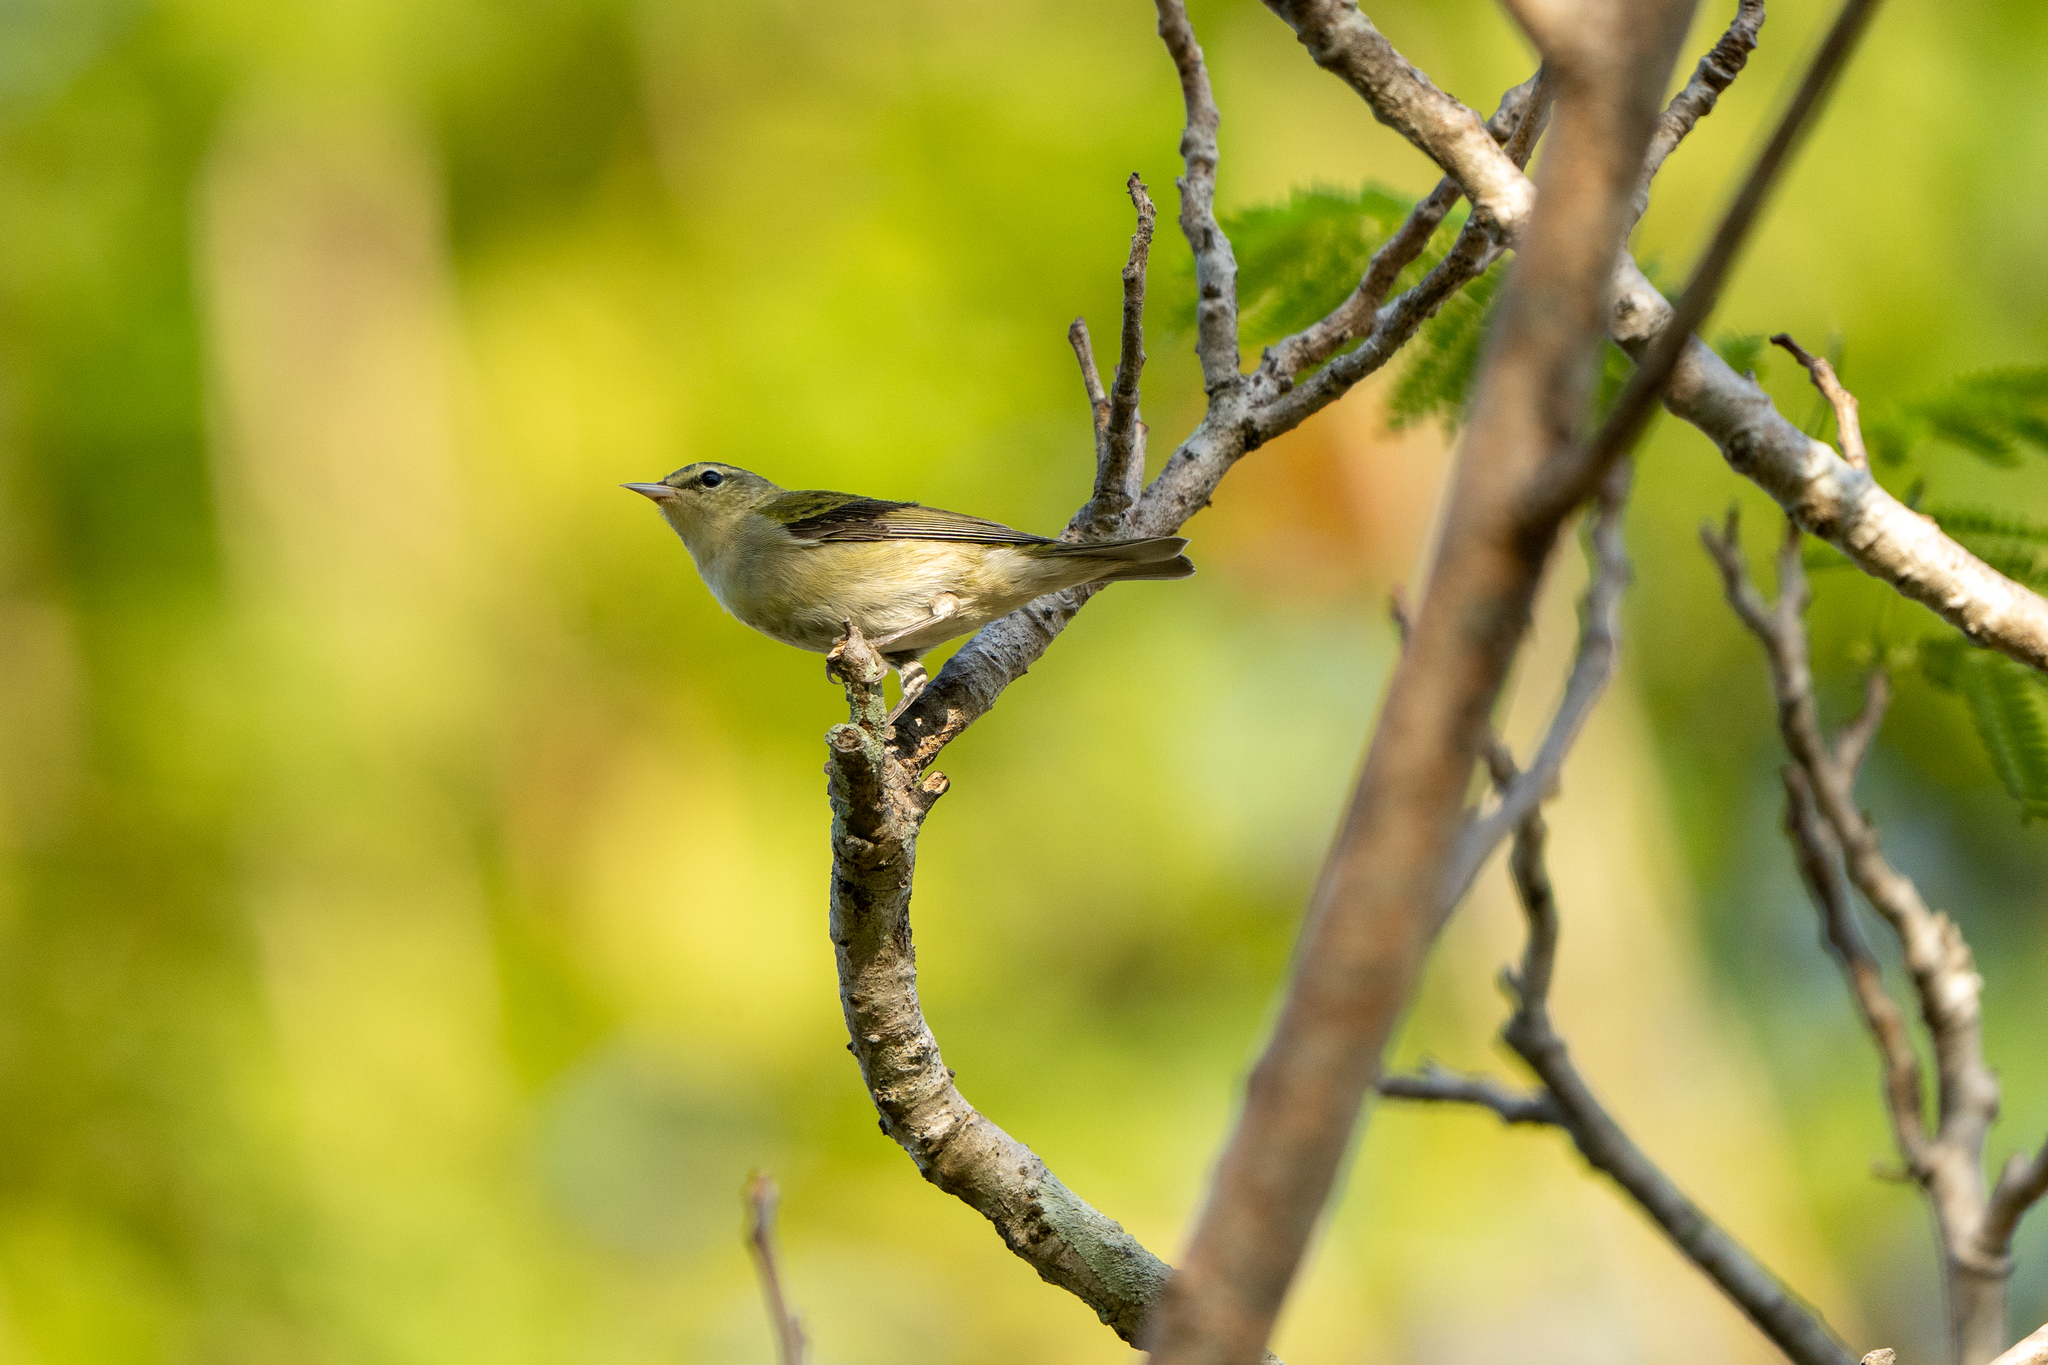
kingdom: Animalia
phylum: Chordata
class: Aves
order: Passeriformes
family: Parulidae
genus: Leiothlypis
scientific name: Leiothlypis peregrina
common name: Tennessee warbler
